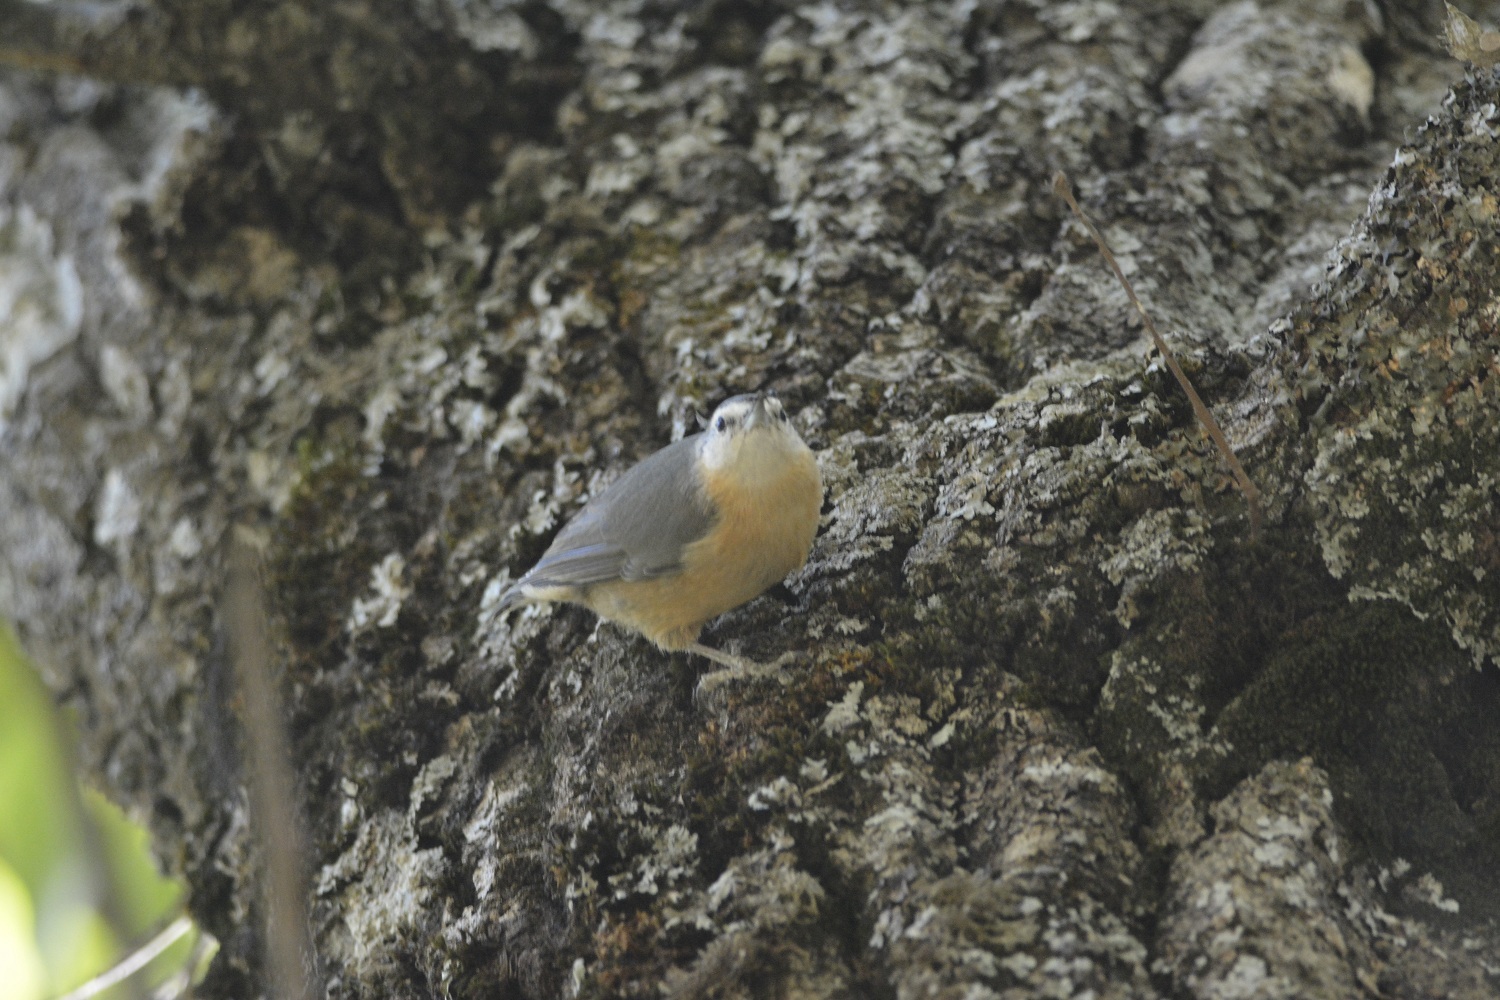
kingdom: Animalia
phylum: Chordata
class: Aves
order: Passeriformes
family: Sittidae
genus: Sitta
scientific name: Sitta ledanti
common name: Algerian nuthatch
